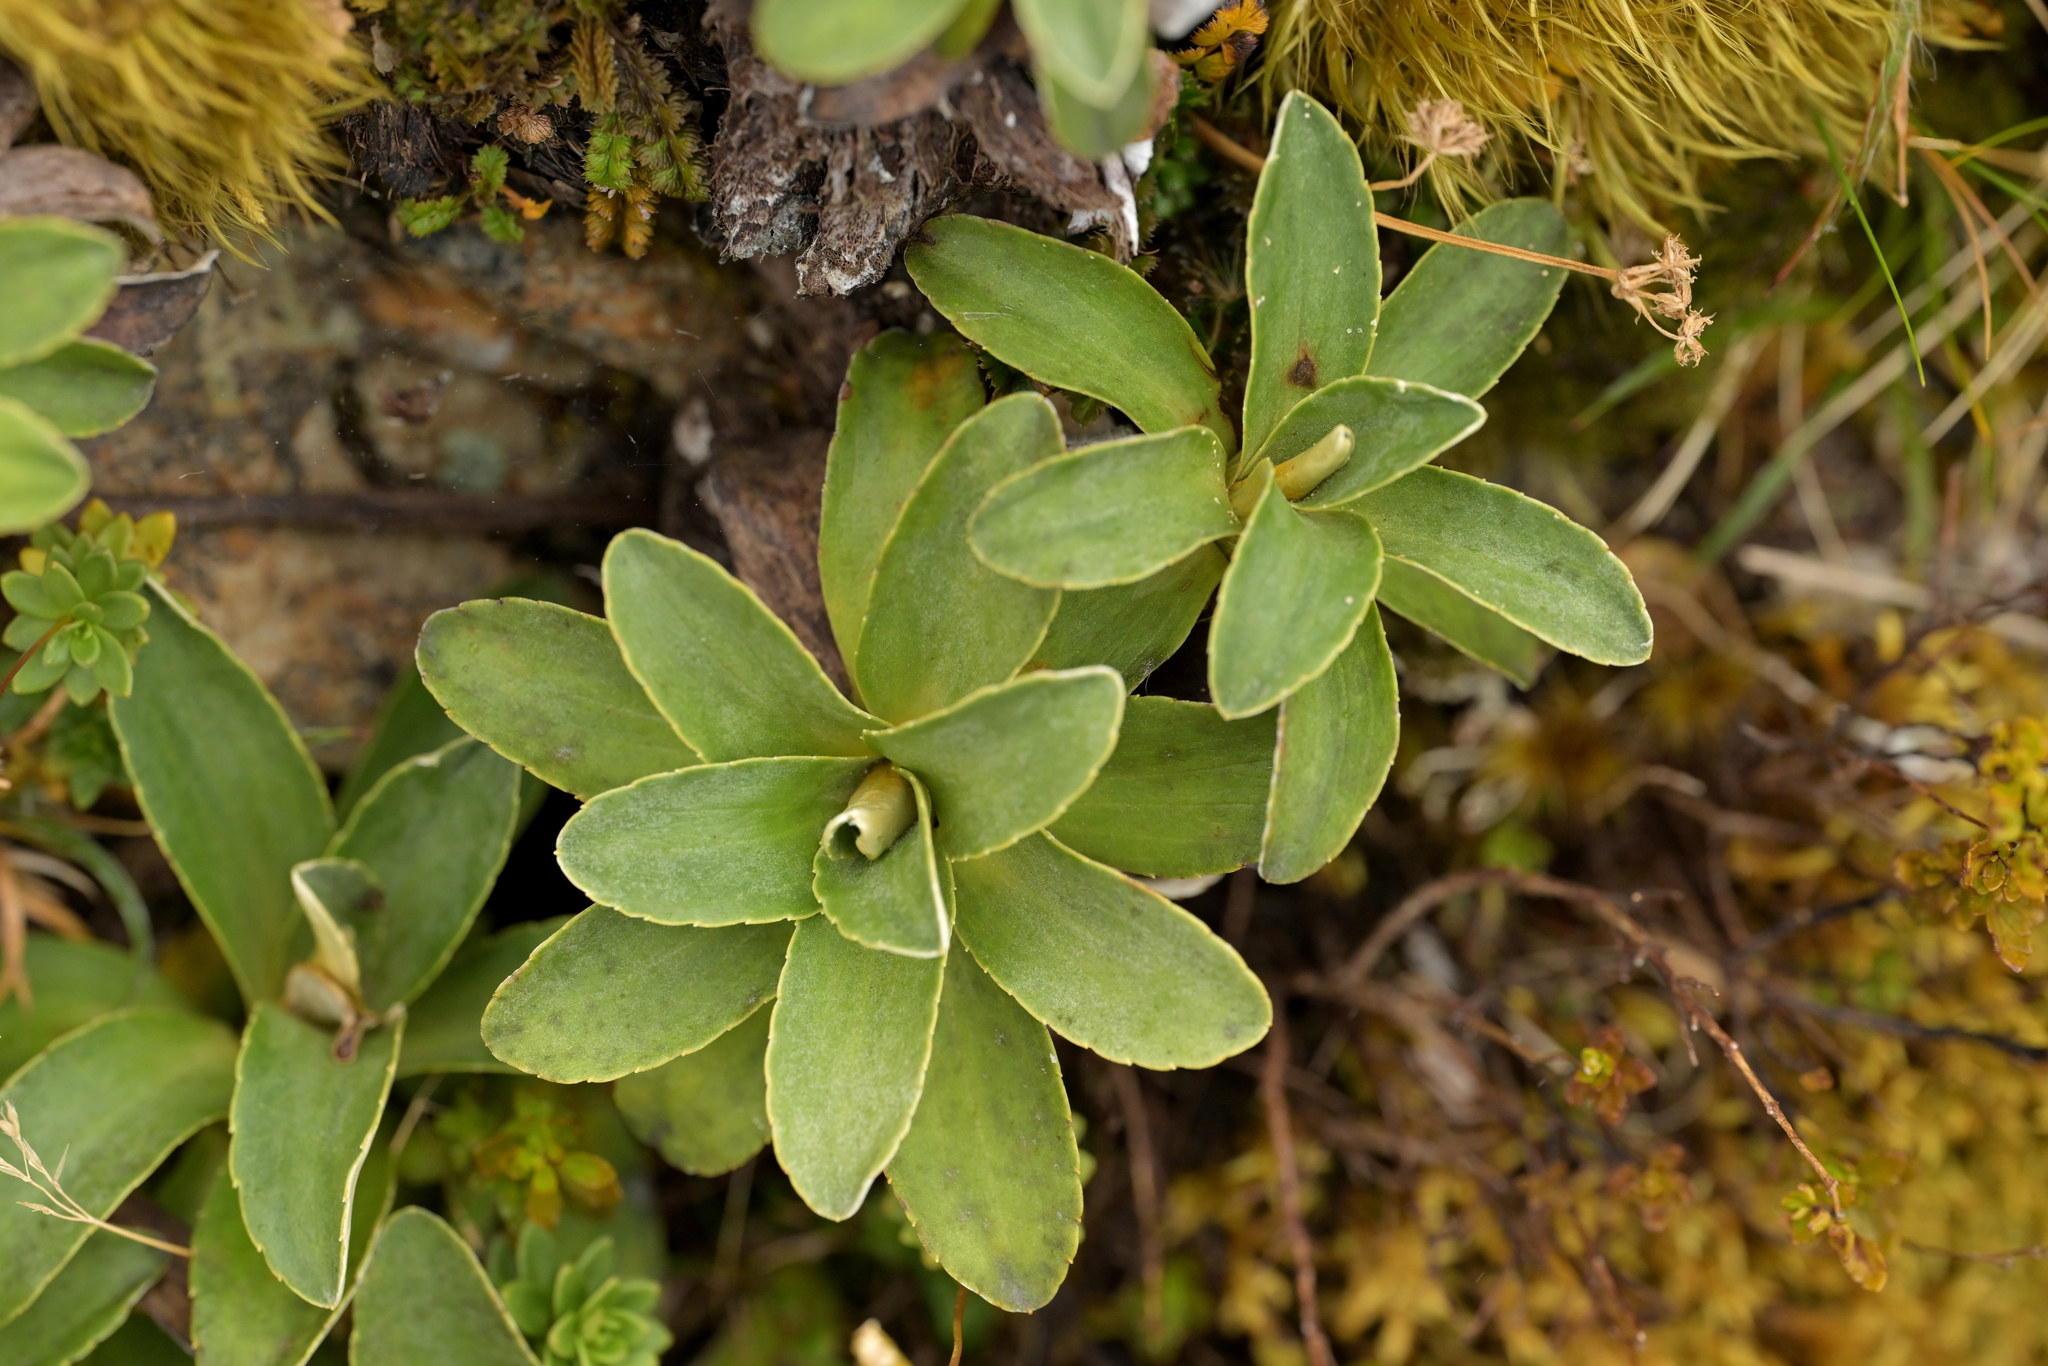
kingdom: Plantae
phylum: Tracheophyta
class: Magnoliopsida
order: Asterales
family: Asteraceae
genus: Celmisia
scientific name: Celmisia hieraciifolia
